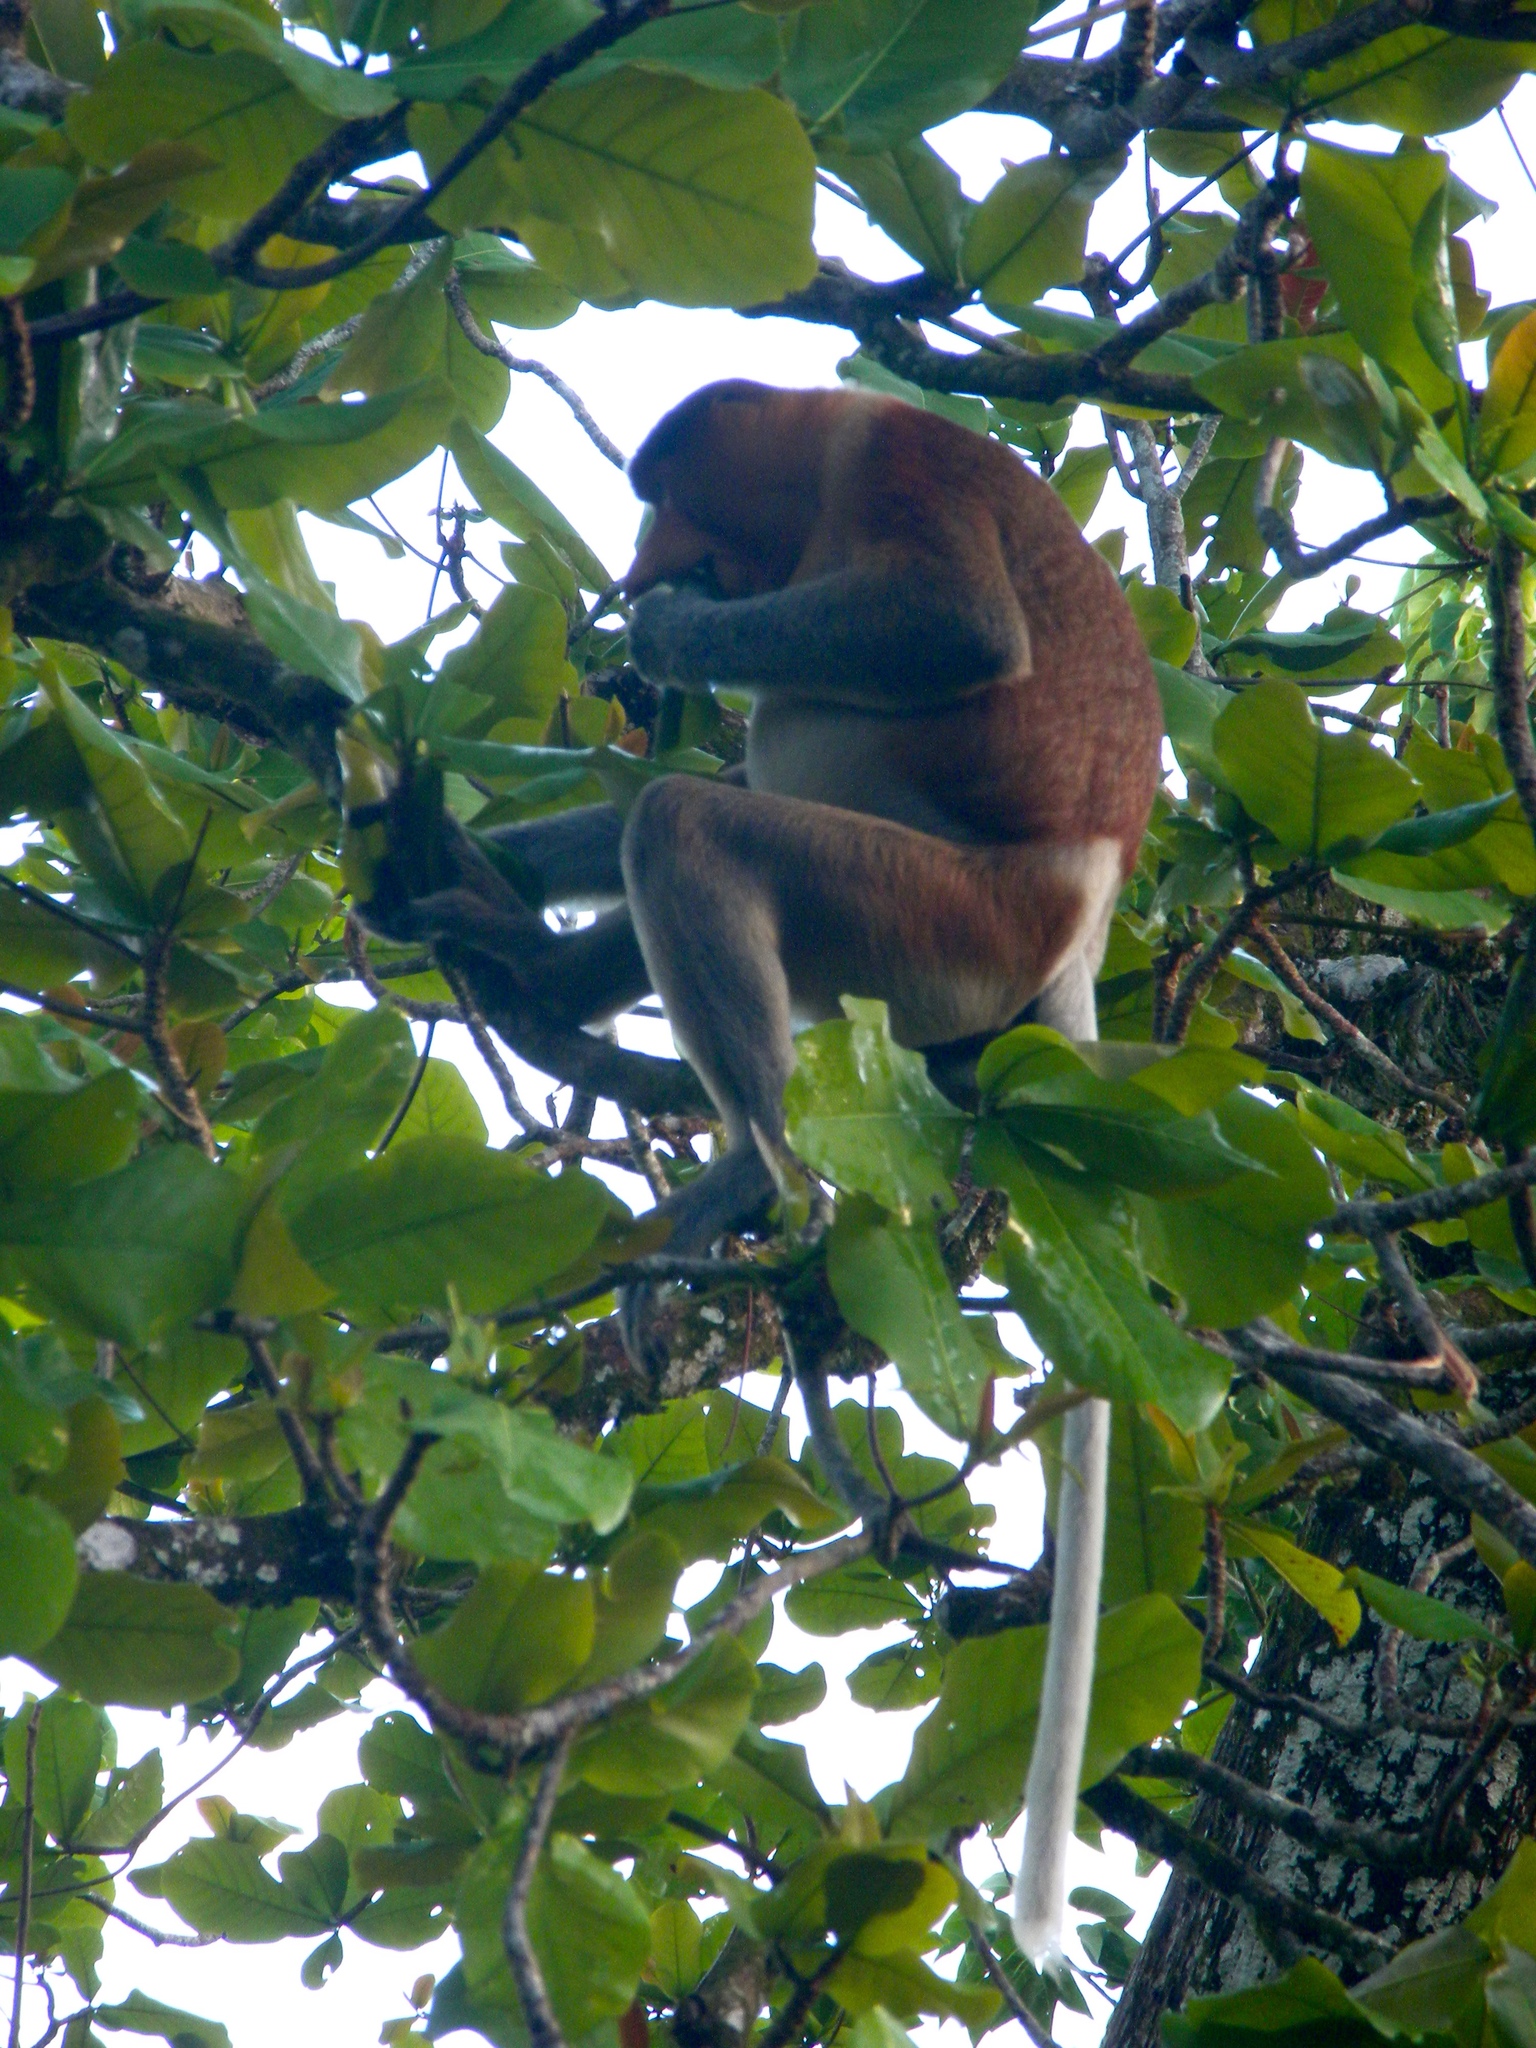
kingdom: Animalia
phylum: Chordata
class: Mammalia
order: Primates
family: Cercopithecidae
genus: Nasalis
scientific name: Nasalis larvatus
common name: Proboscis monkey
